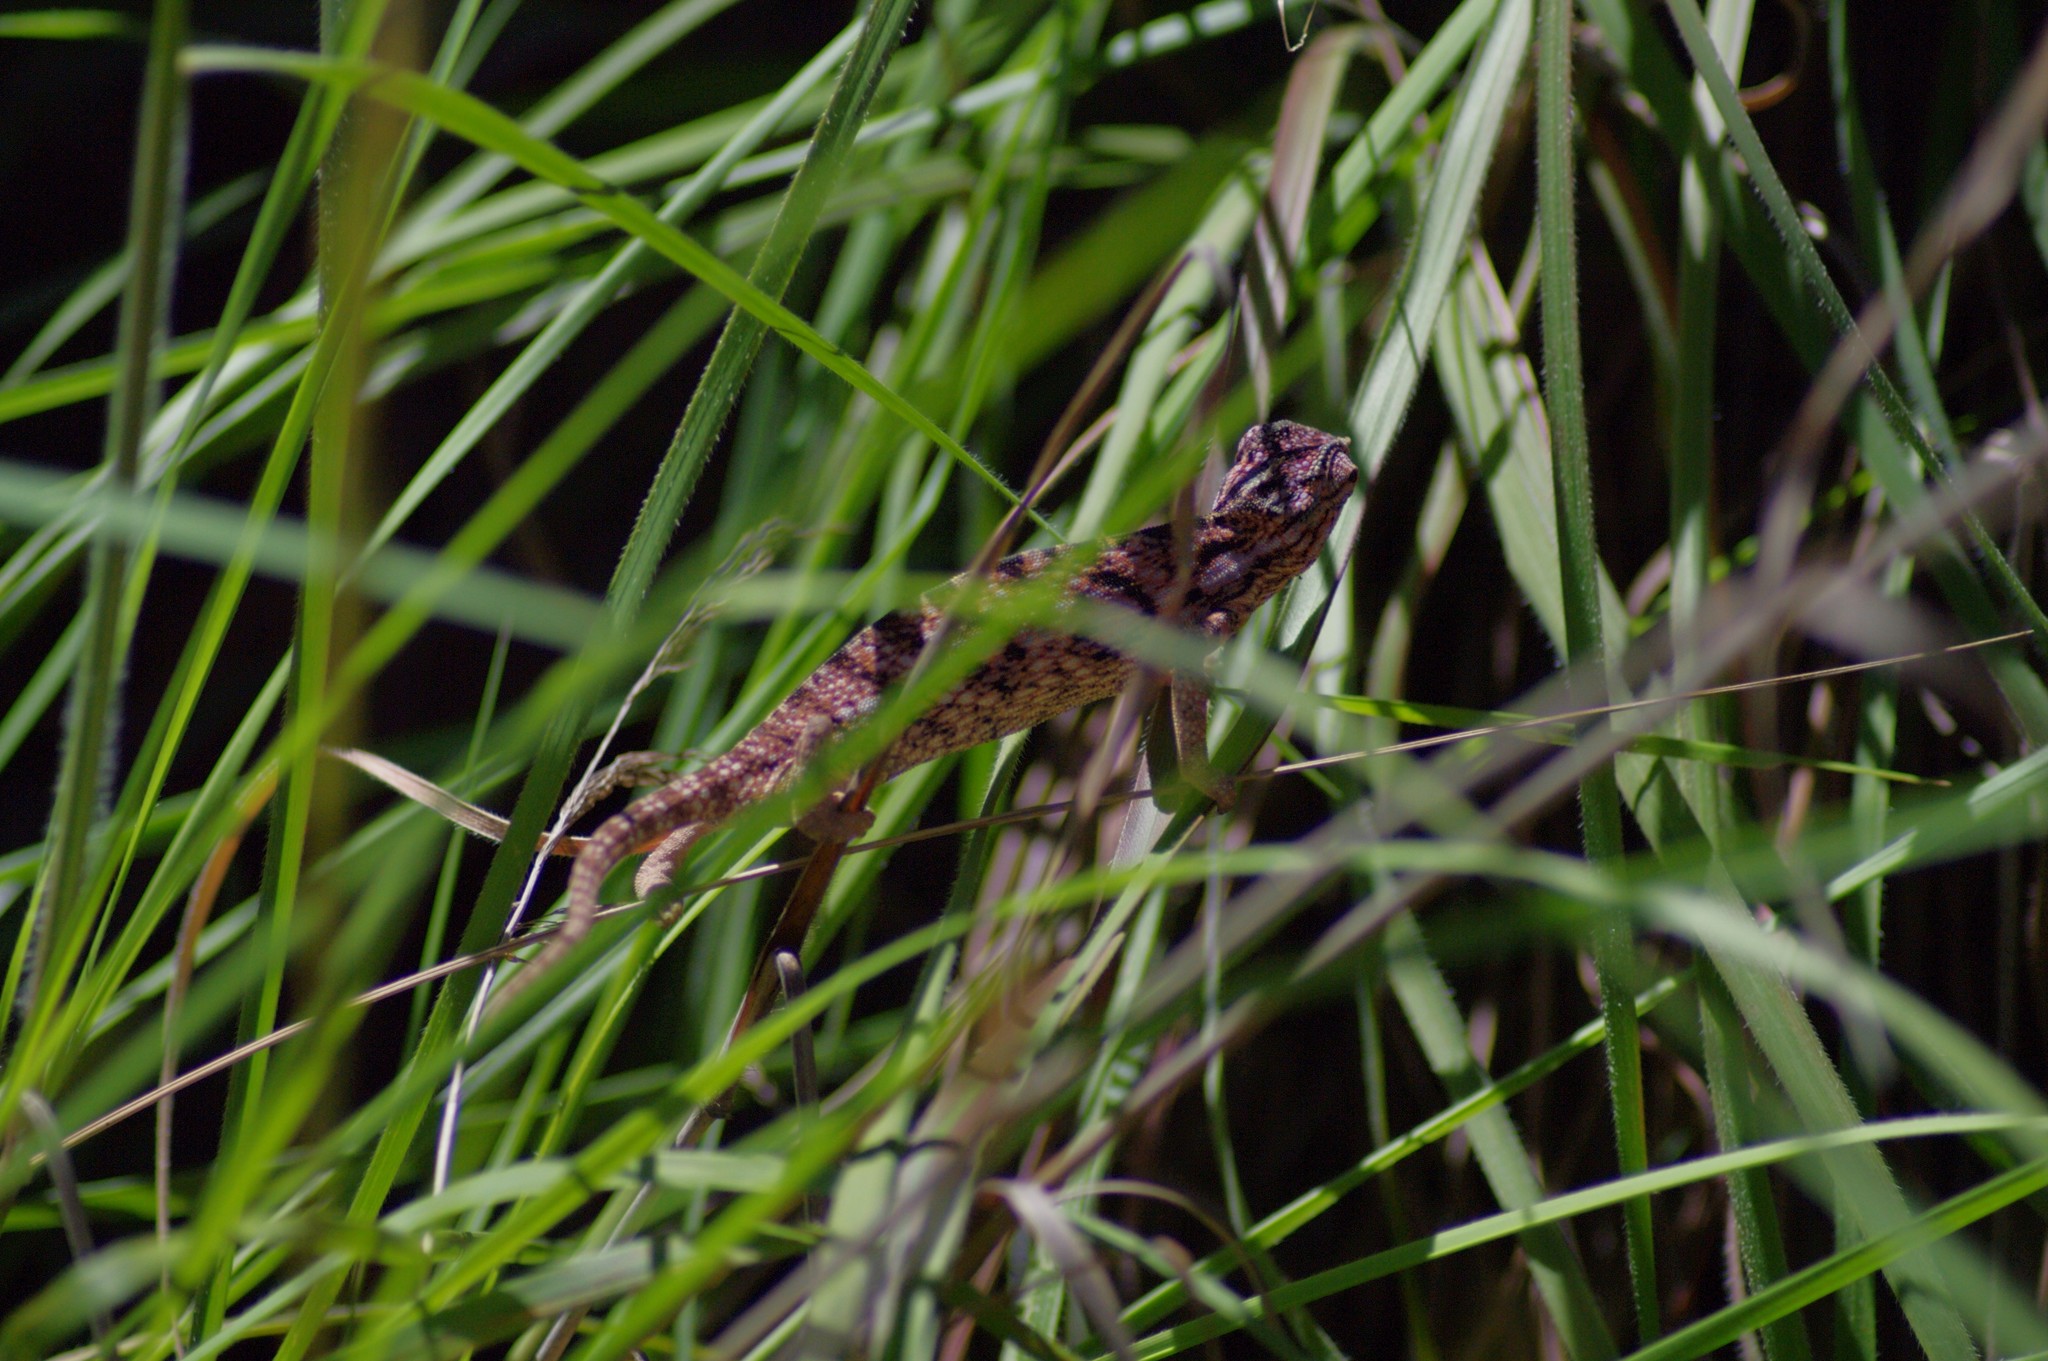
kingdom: Animalia
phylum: Chordata
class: Squamata
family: Chamaeleonidae
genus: Furcifer
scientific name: Furcifer major
